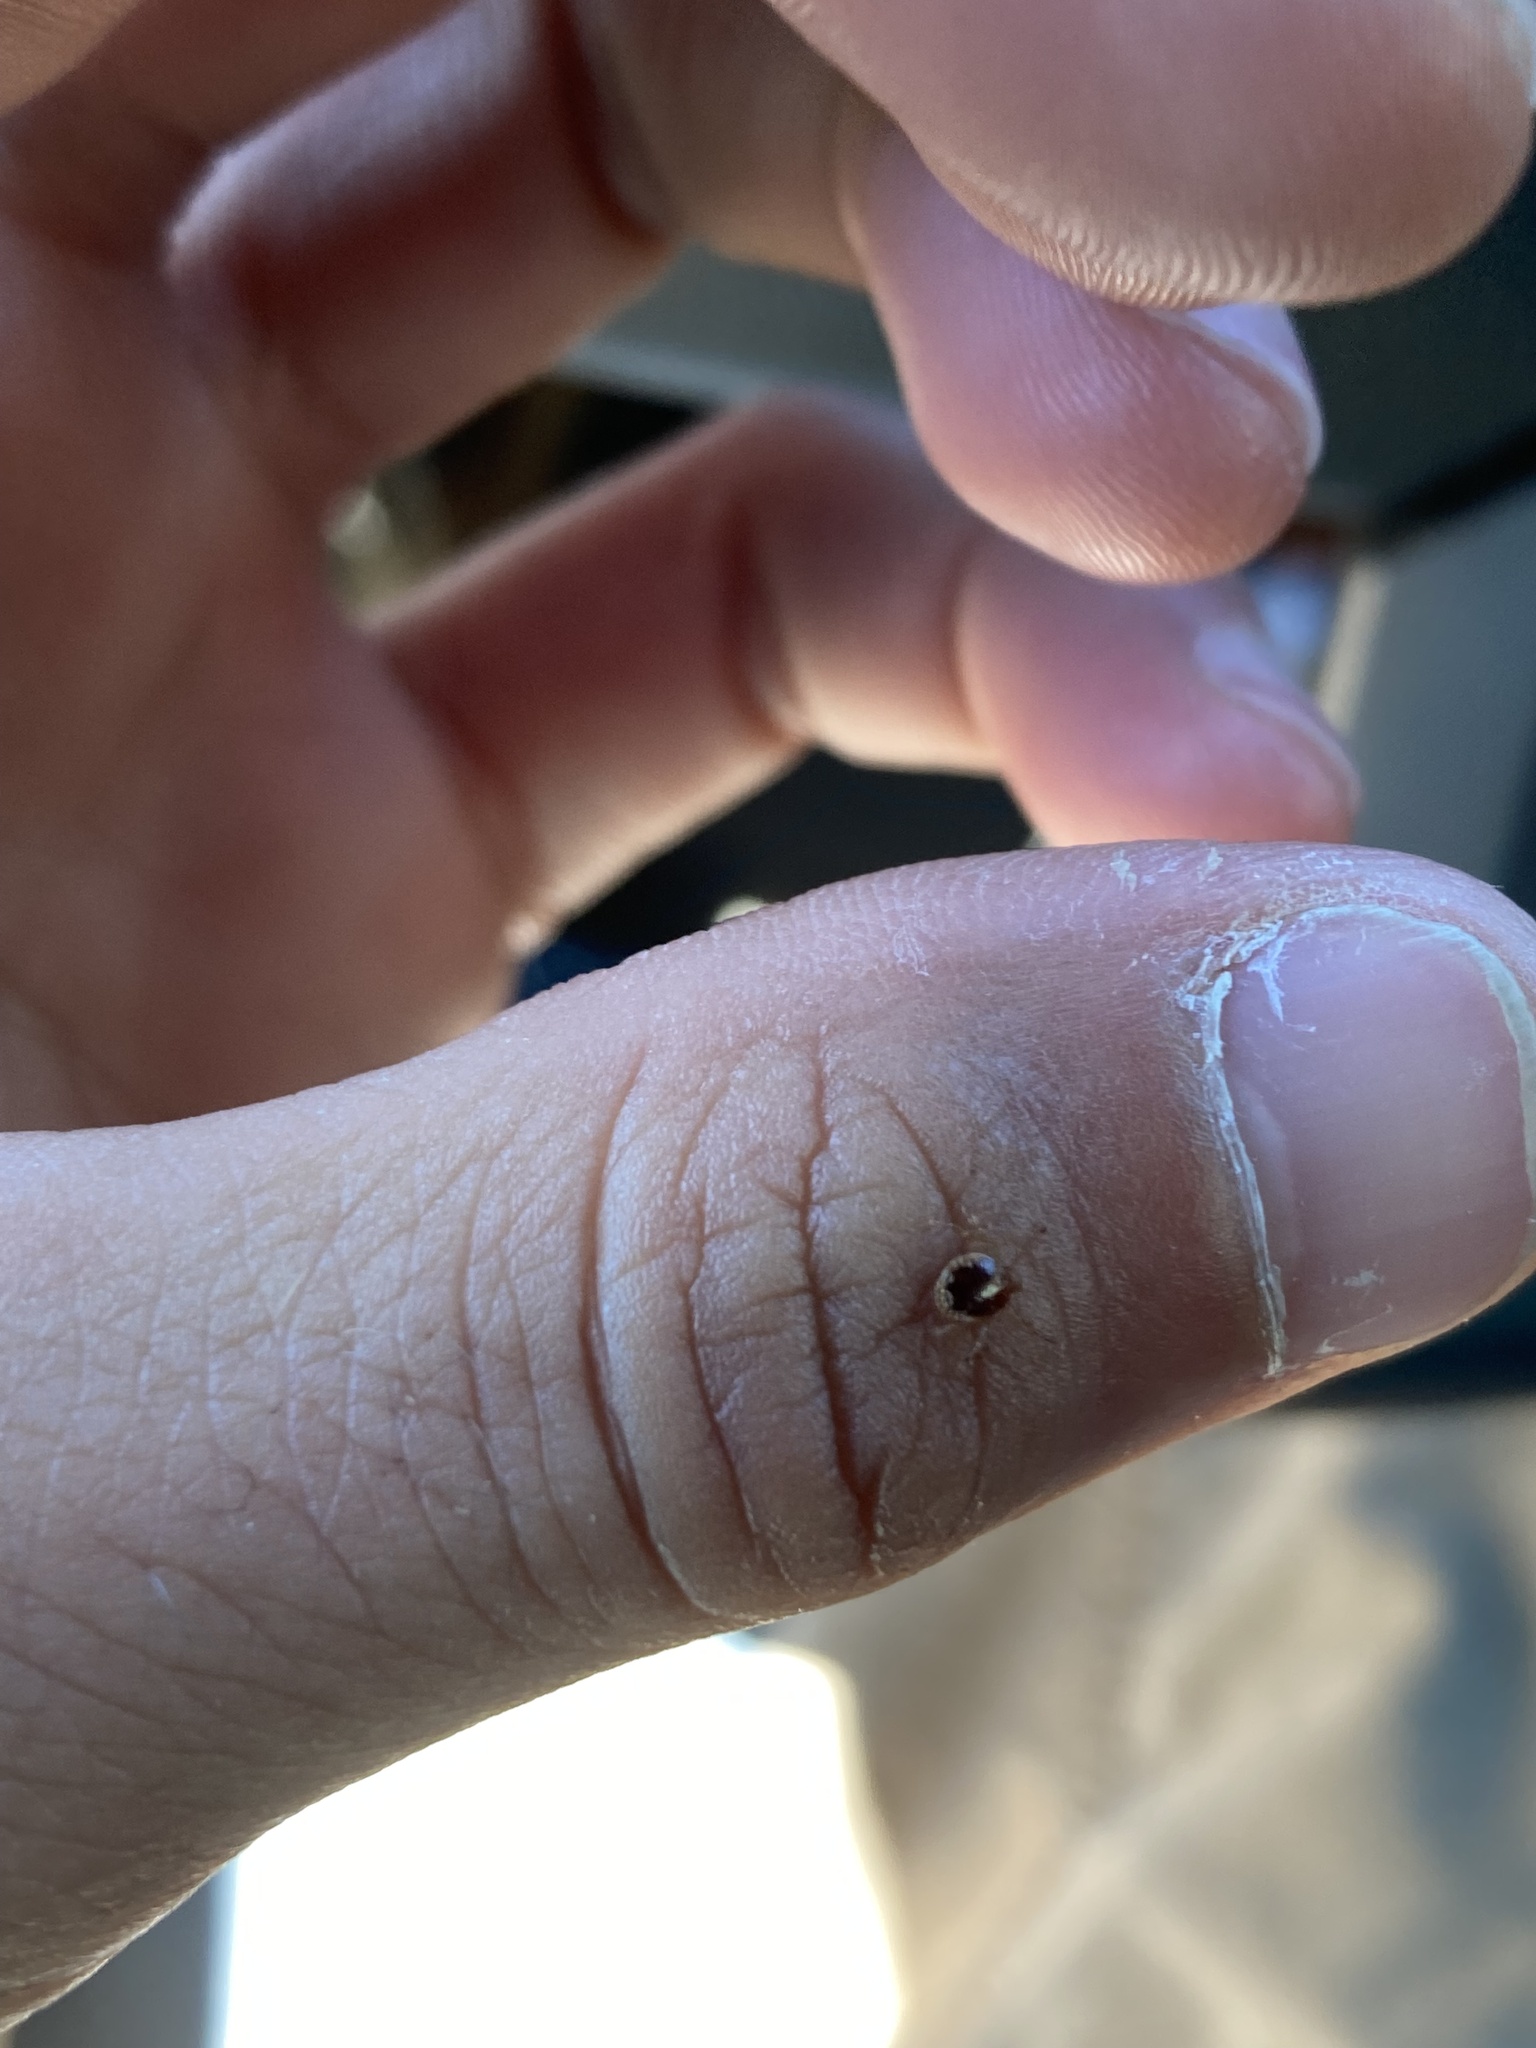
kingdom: Animalia
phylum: Arthropoda
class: Arachnida
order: Ixodida
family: Ixodidae
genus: Amblyomma
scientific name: Amblyomma americanum
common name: Lone star tick
